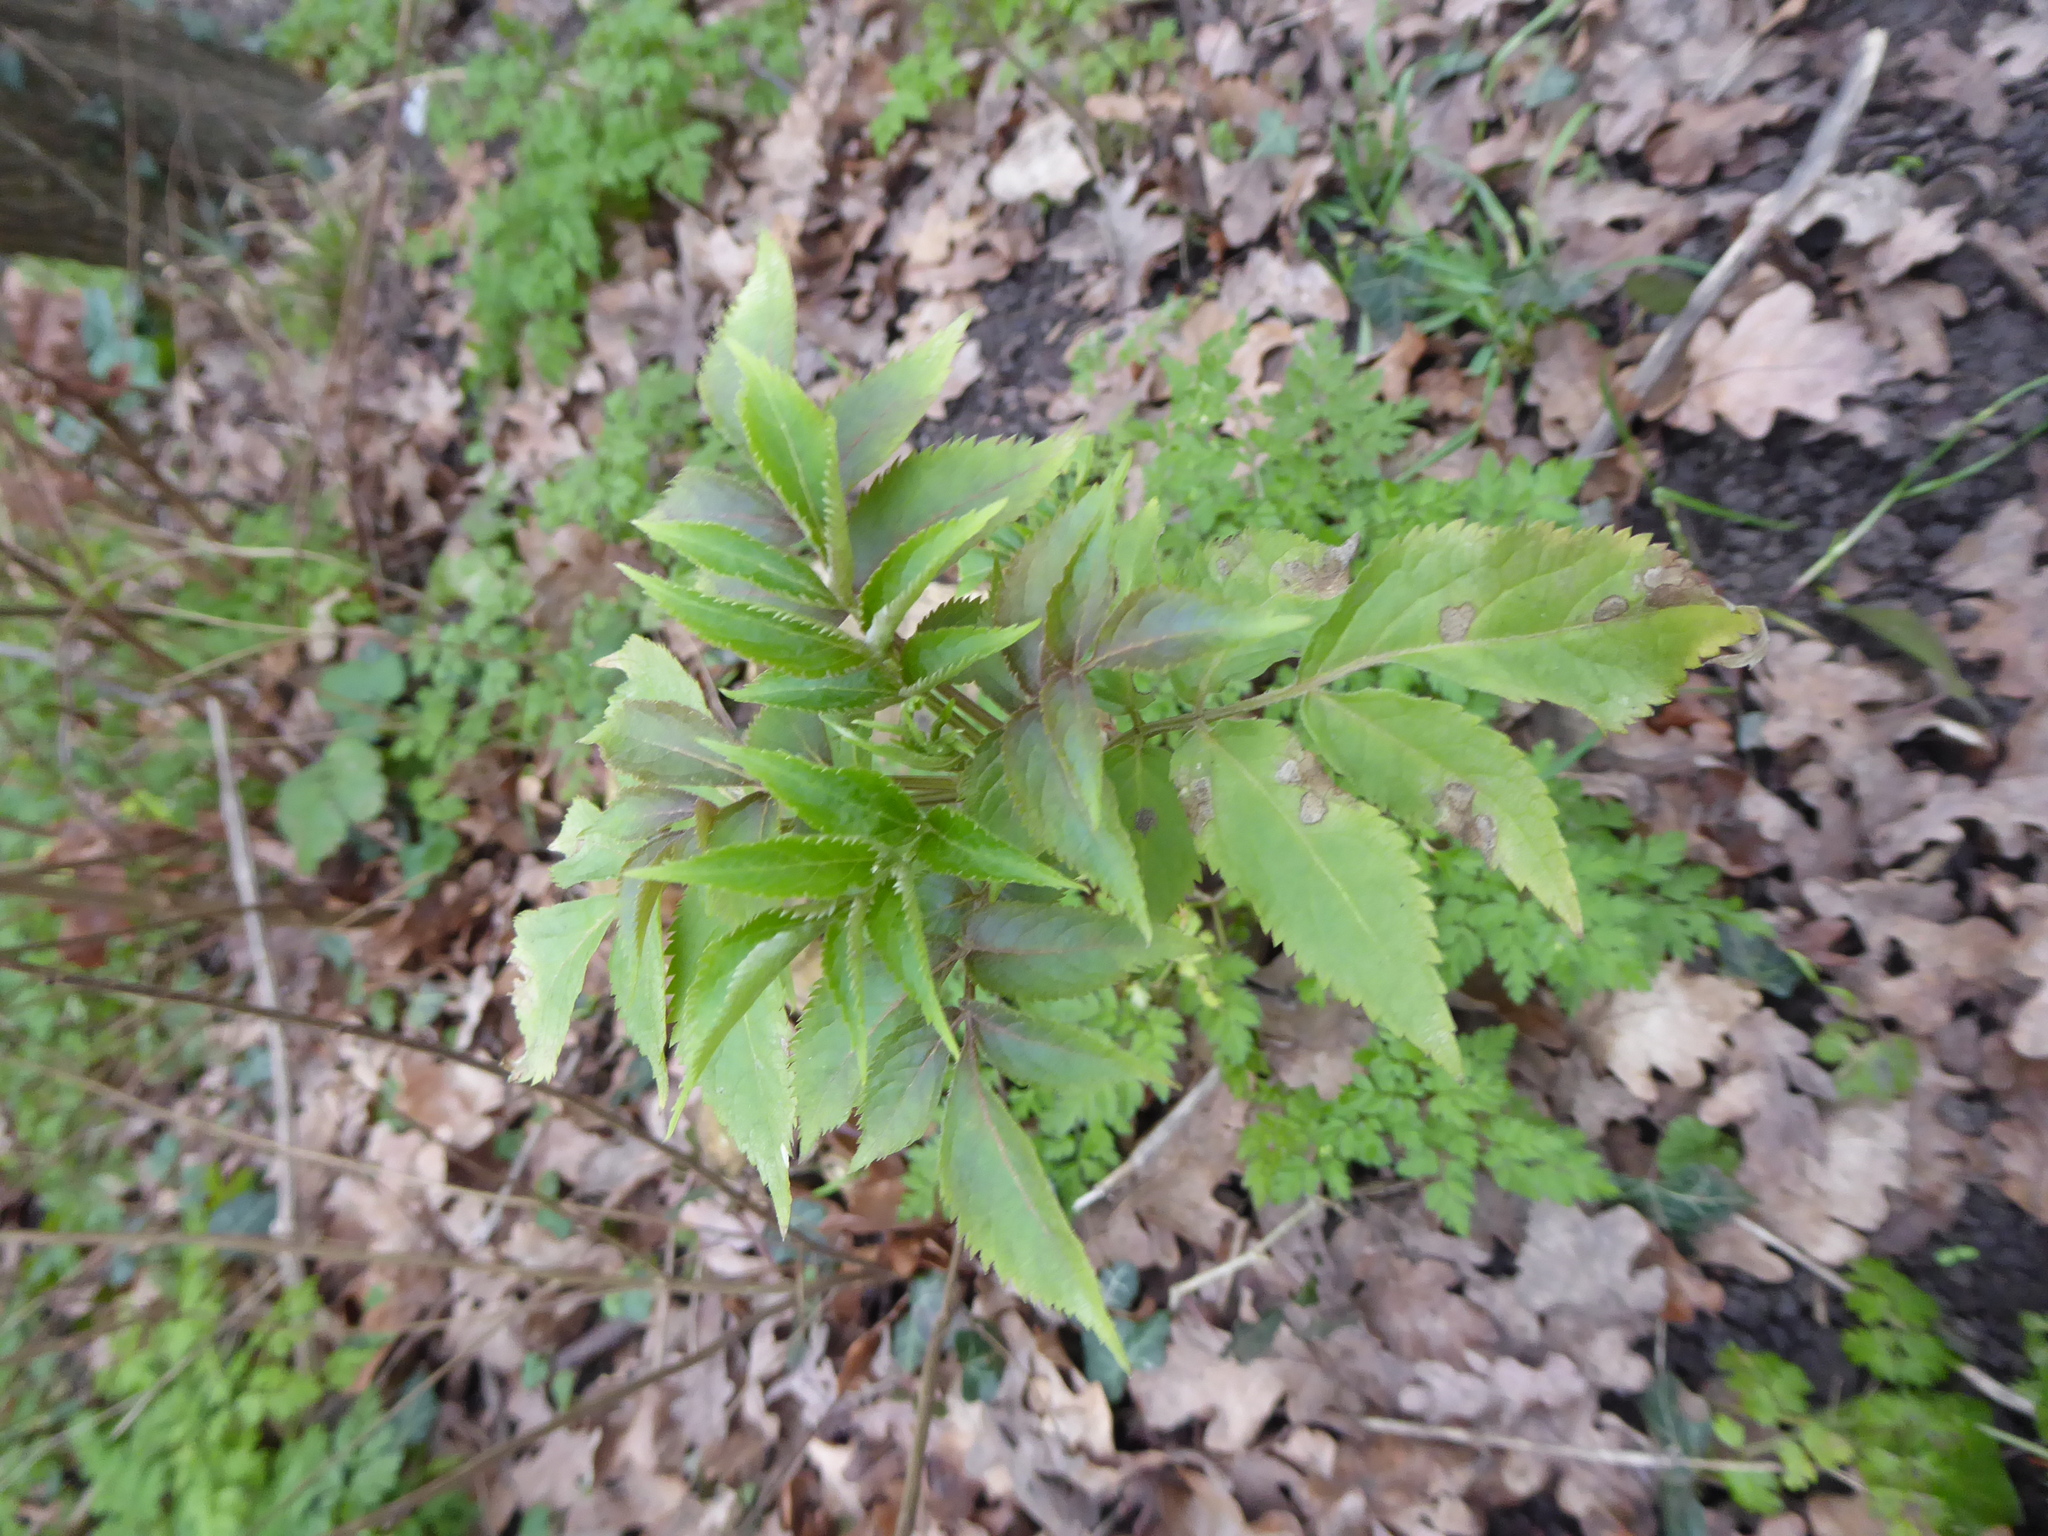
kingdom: Plantae
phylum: Tracheophyta
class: Magnoliopsida
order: Dipsacales
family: Viburnaceae
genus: Sambucus
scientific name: Sambucus nigra
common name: Elder
